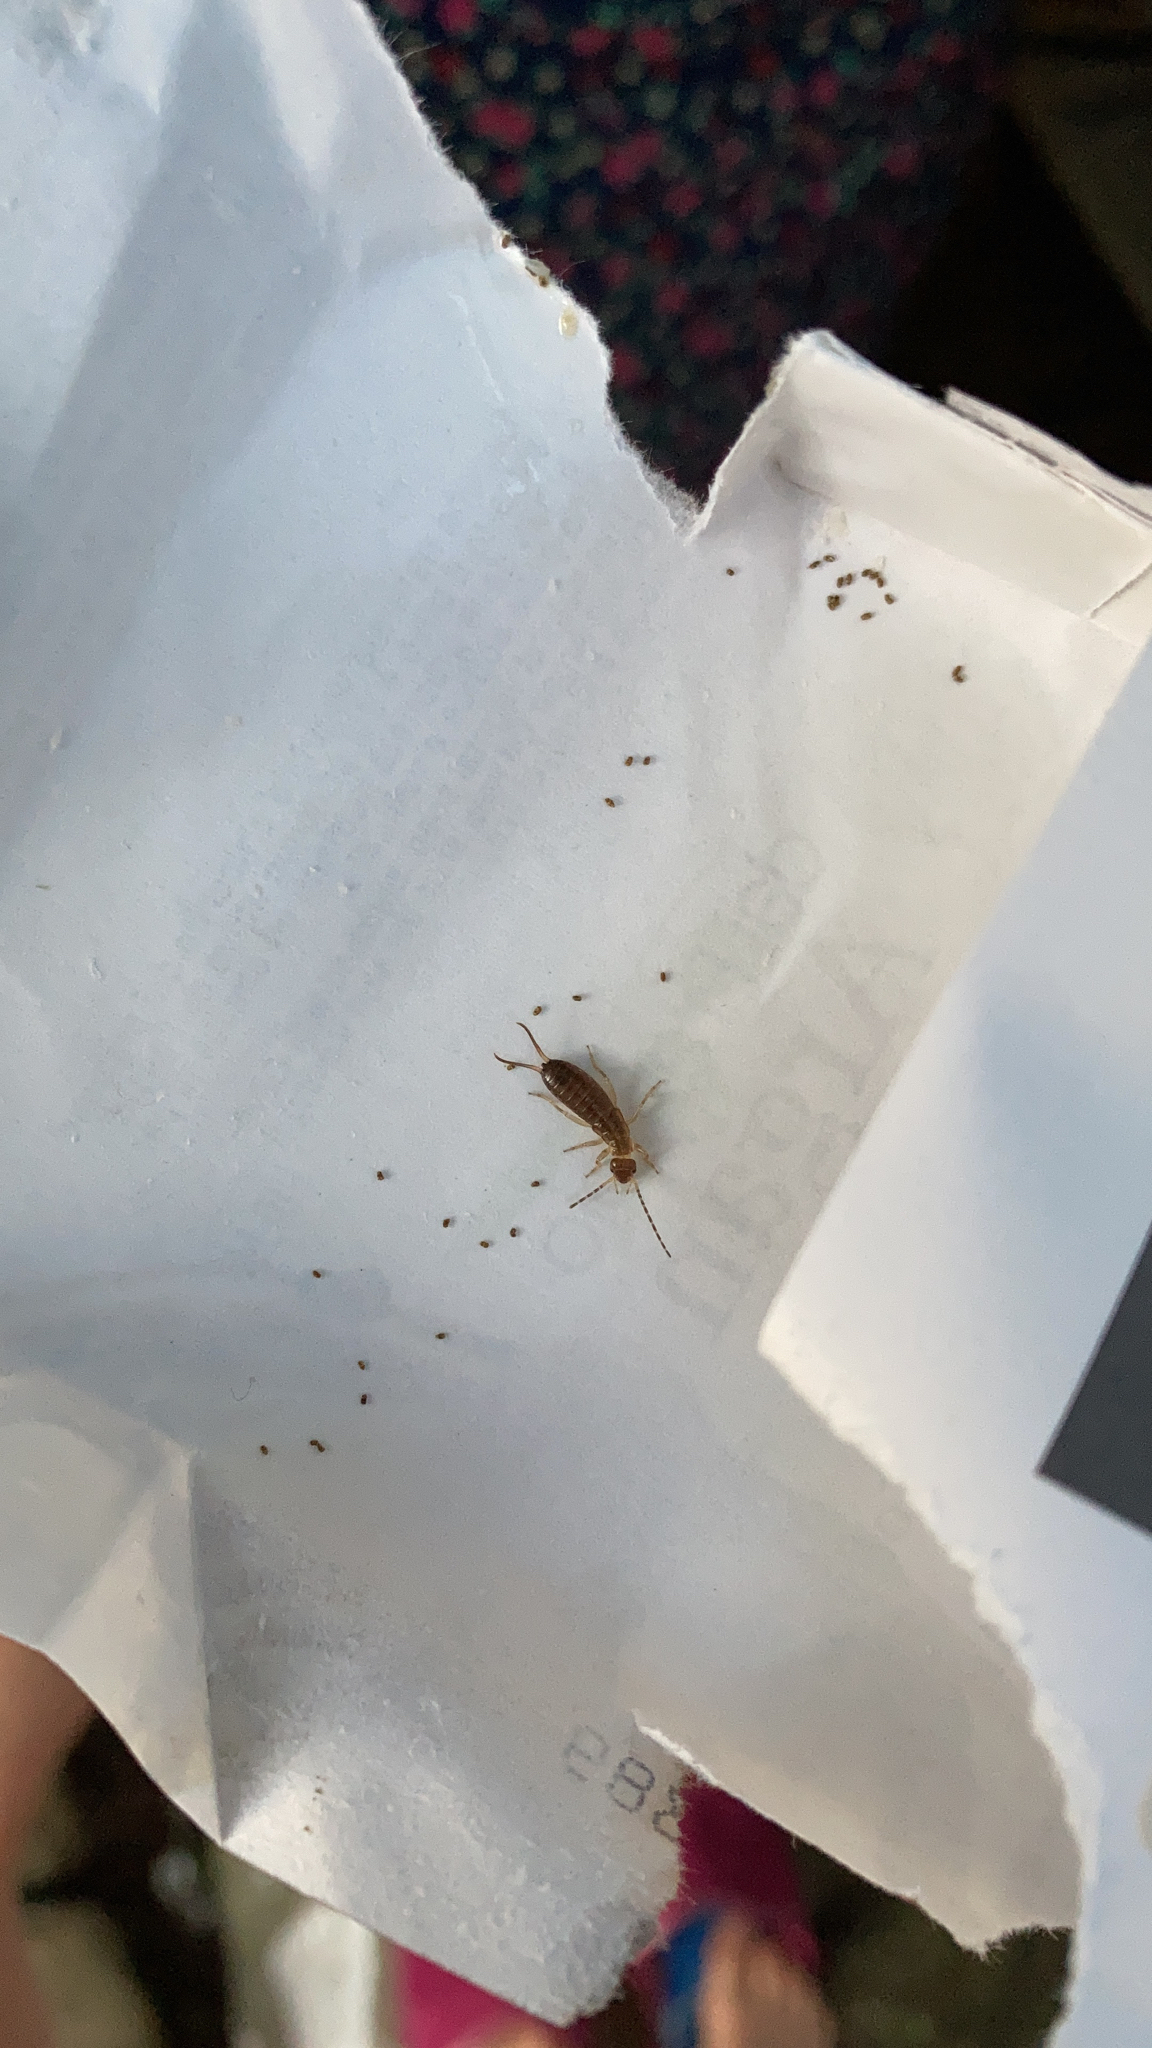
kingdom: Animalia
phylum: Arthropoda
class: Insecta
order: Dermaptera
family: Forficulidae
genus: Forficula
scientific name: Forficula
